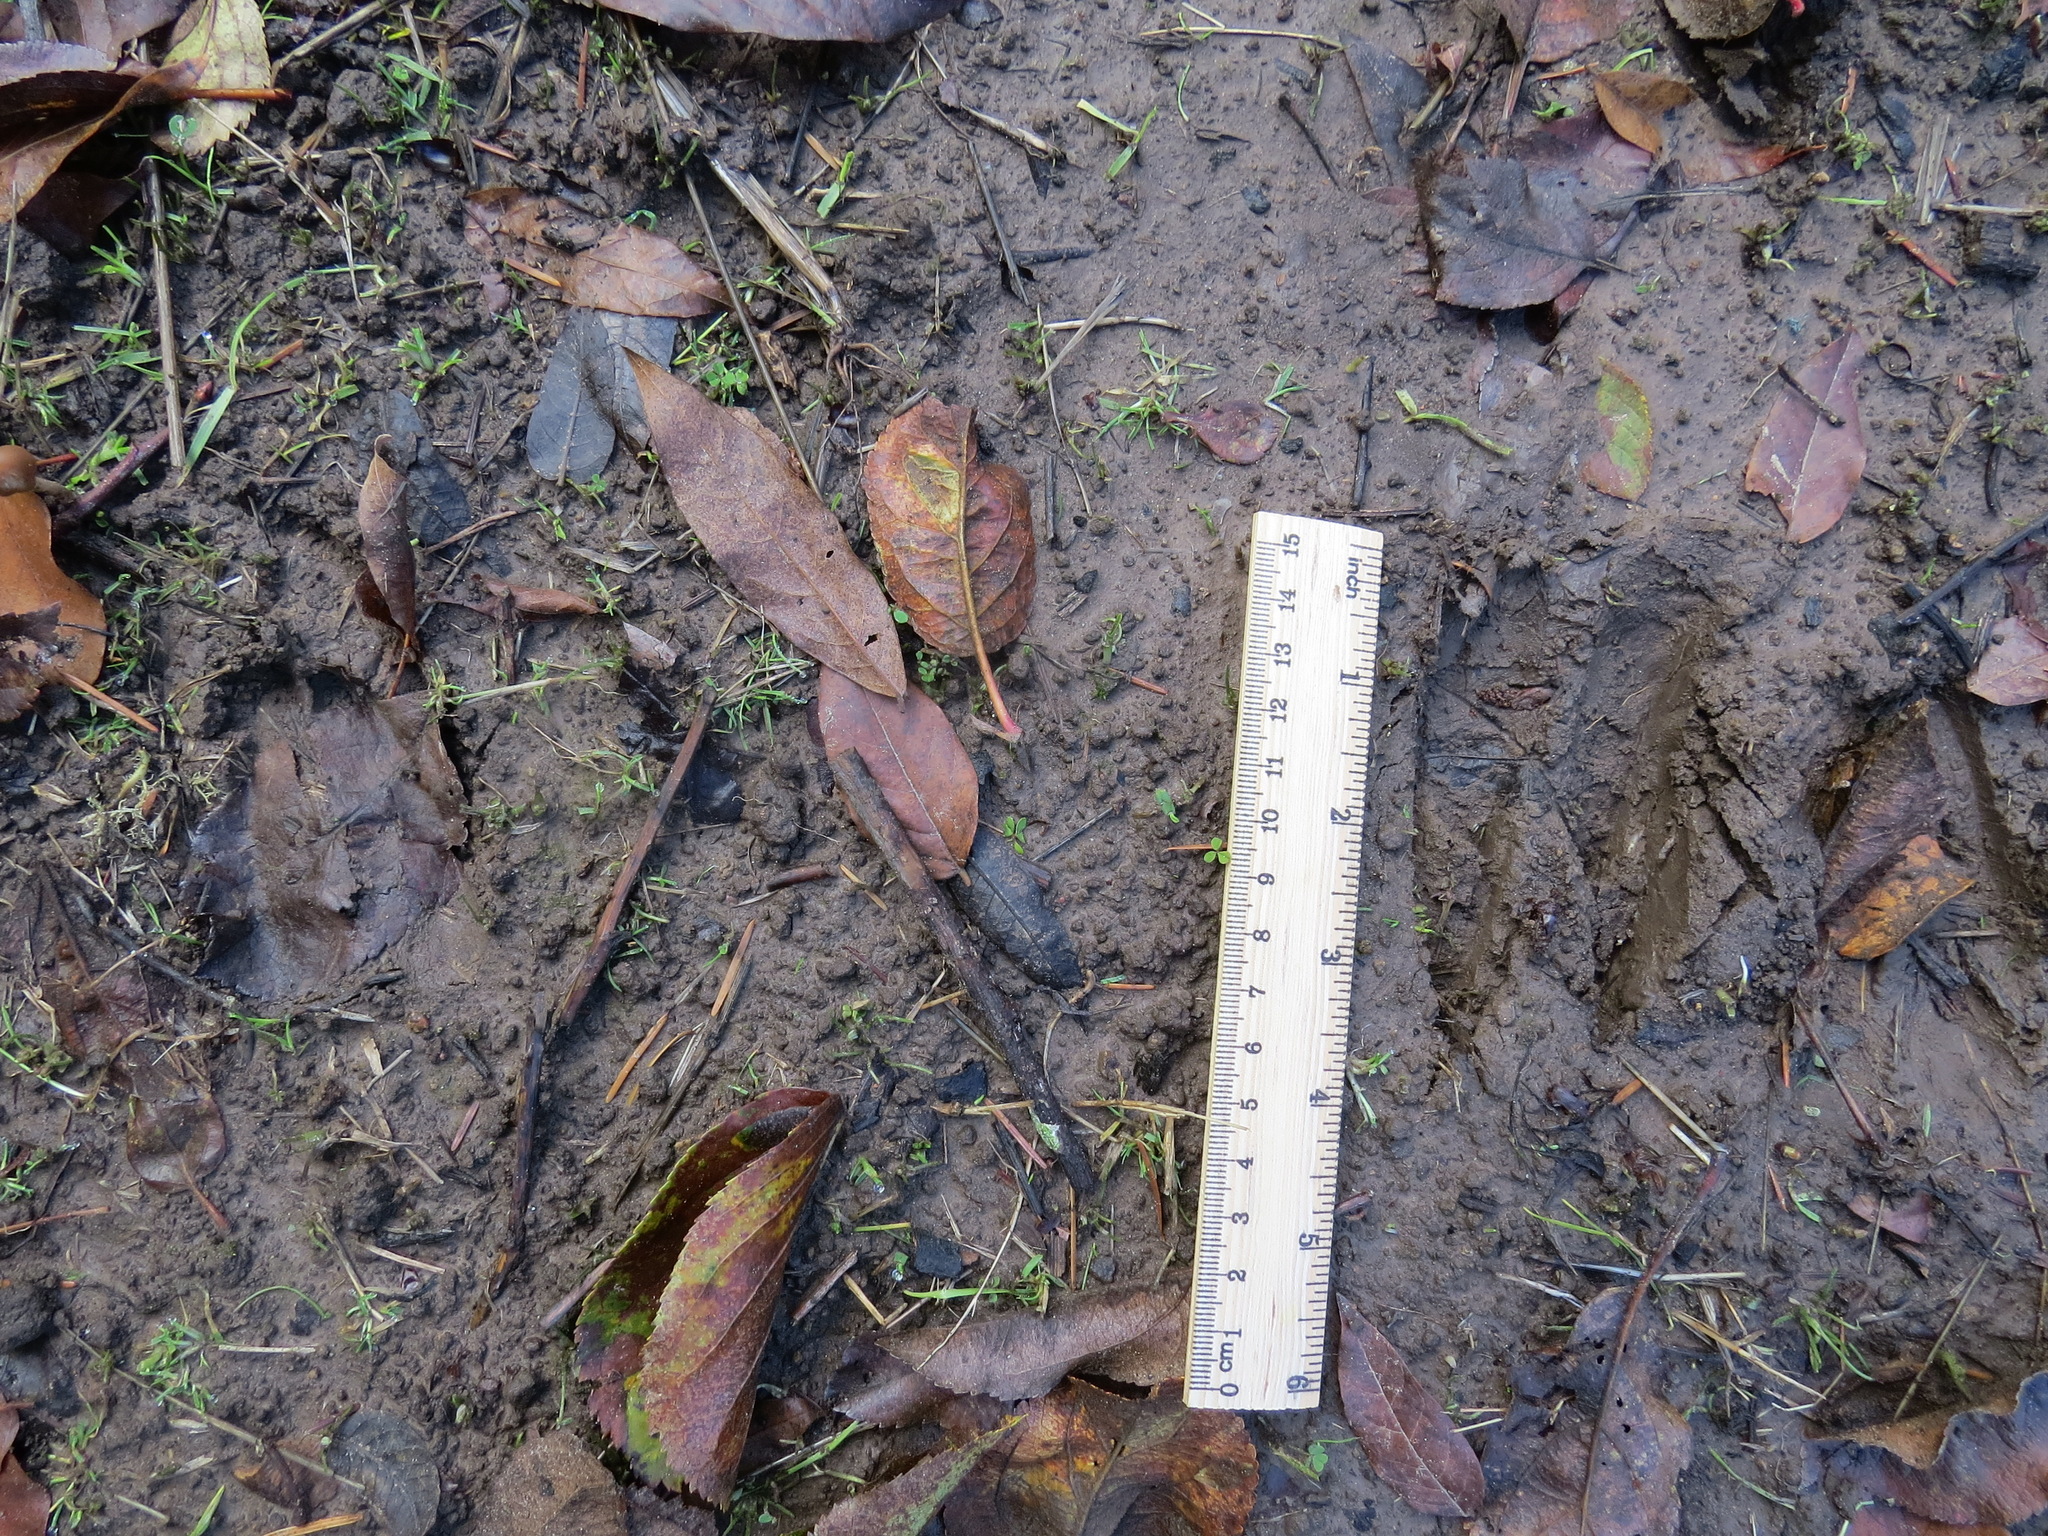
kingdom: Animalia
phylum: Chordata
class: Mammalia
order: Artiodactyla
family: Cervidae
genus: Odocoileus
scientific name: Odocoileus hemionus
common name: Mule deer
